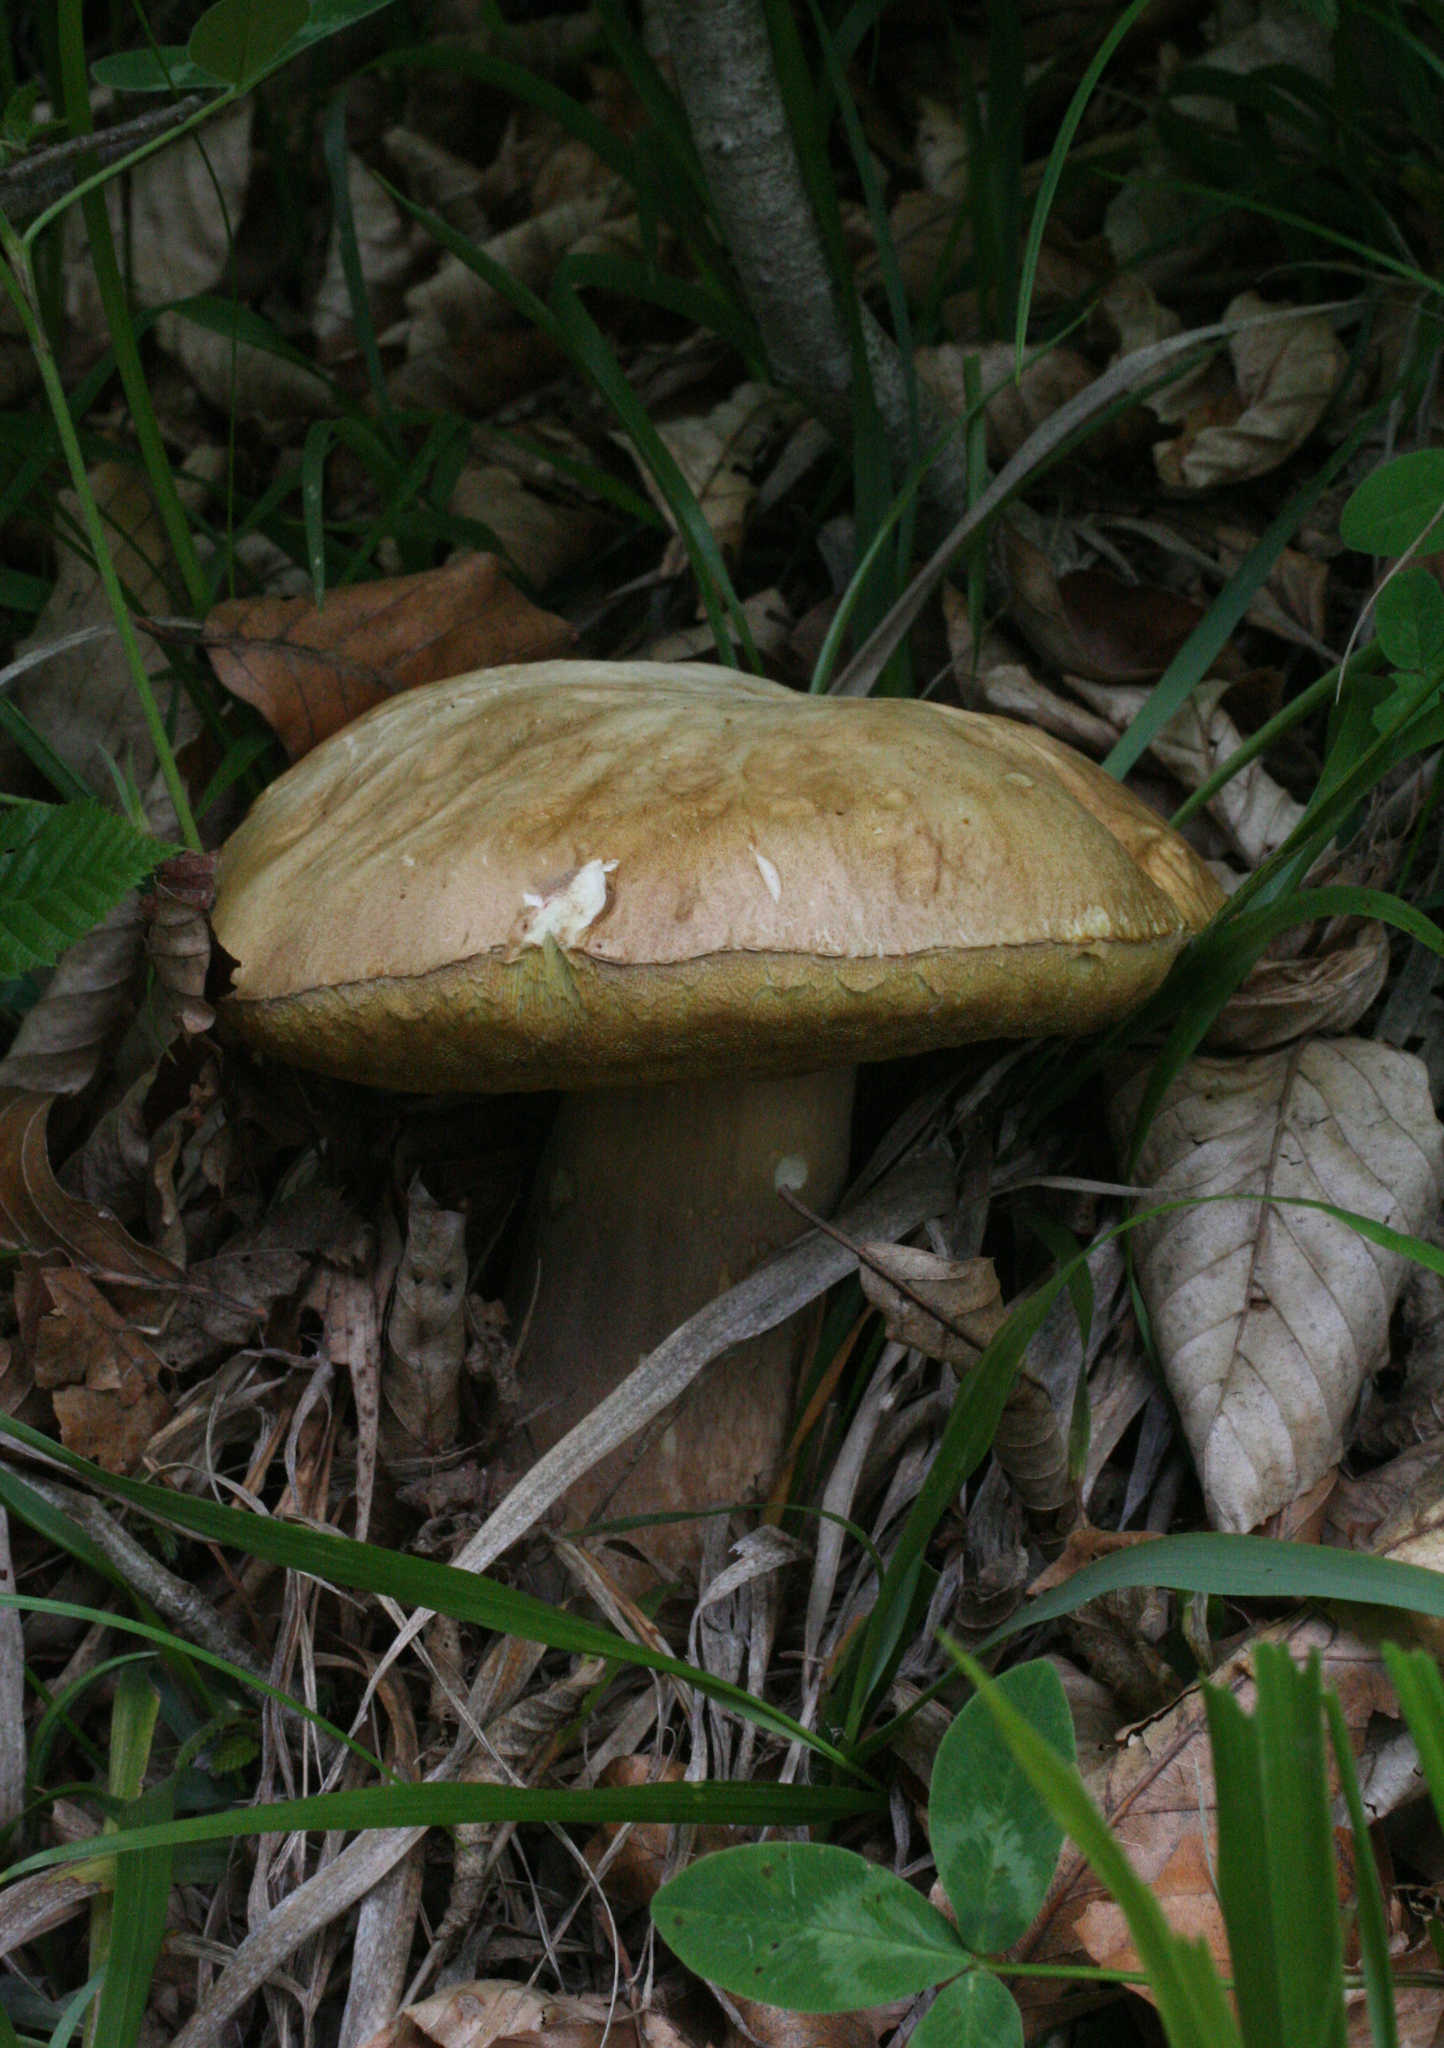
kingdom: Fungi
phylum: Basidiomycota
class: Agaricomycetes
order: Boletales
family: Boletaceae
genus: Boletus
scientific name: Boletus reticulatus
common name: Summer bolete
